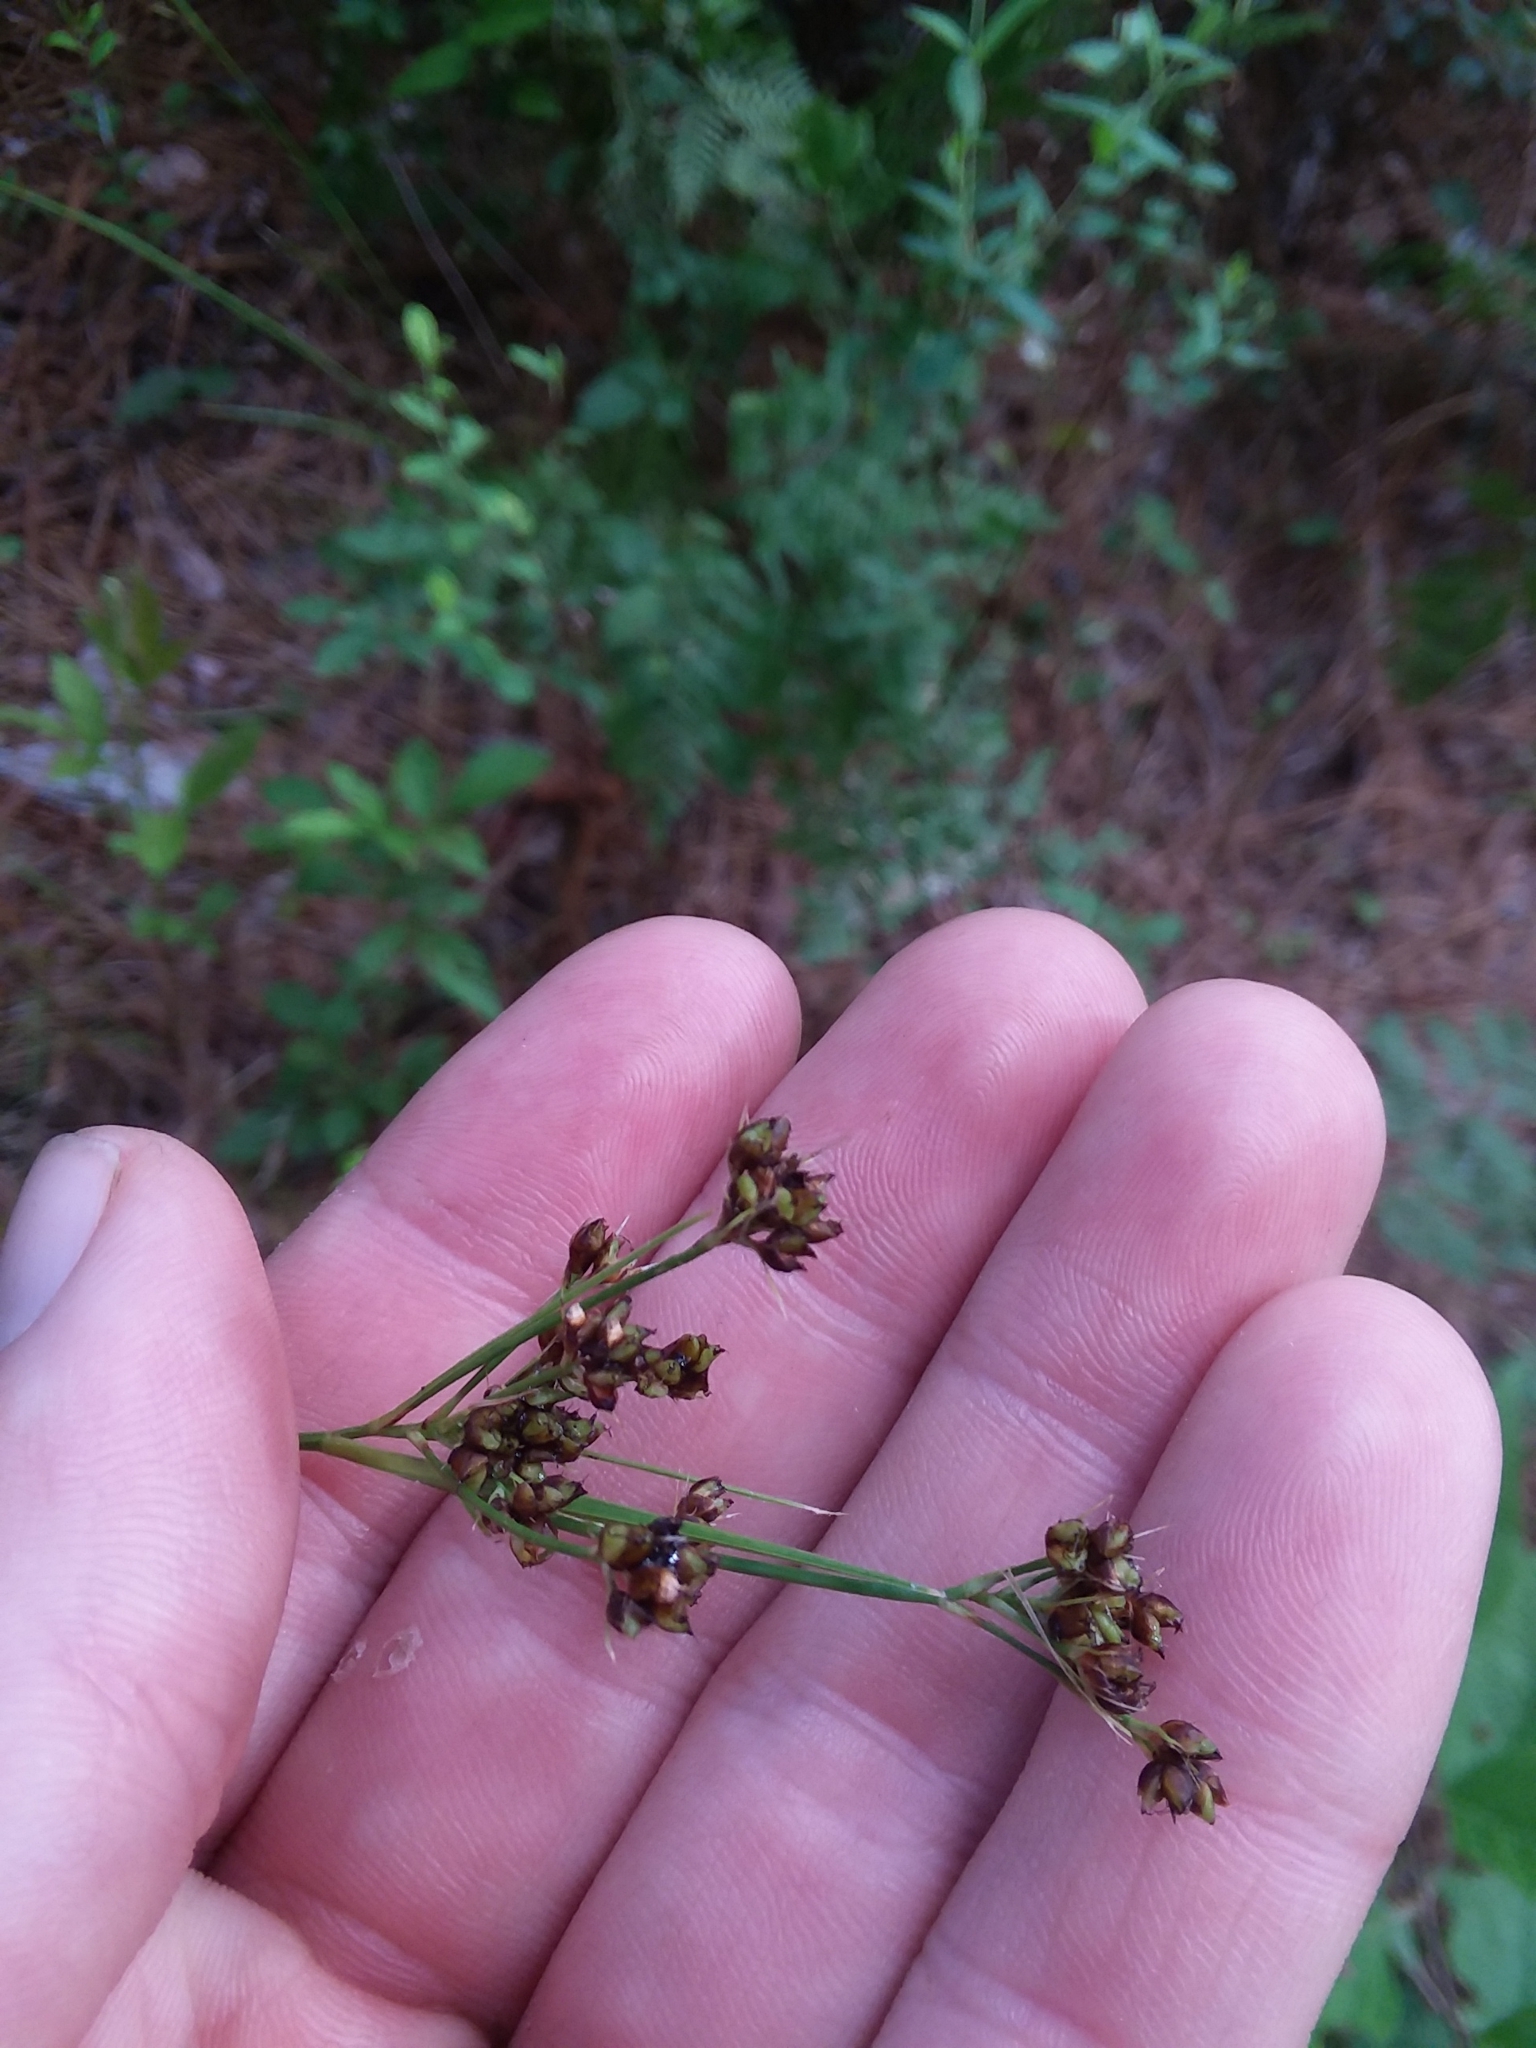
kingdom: Plantae
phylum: Tracheophyta
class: Liliopsida
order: Poales
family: Cyperaceae
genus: Rhynchospora
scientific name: Rhynchospora recognita
